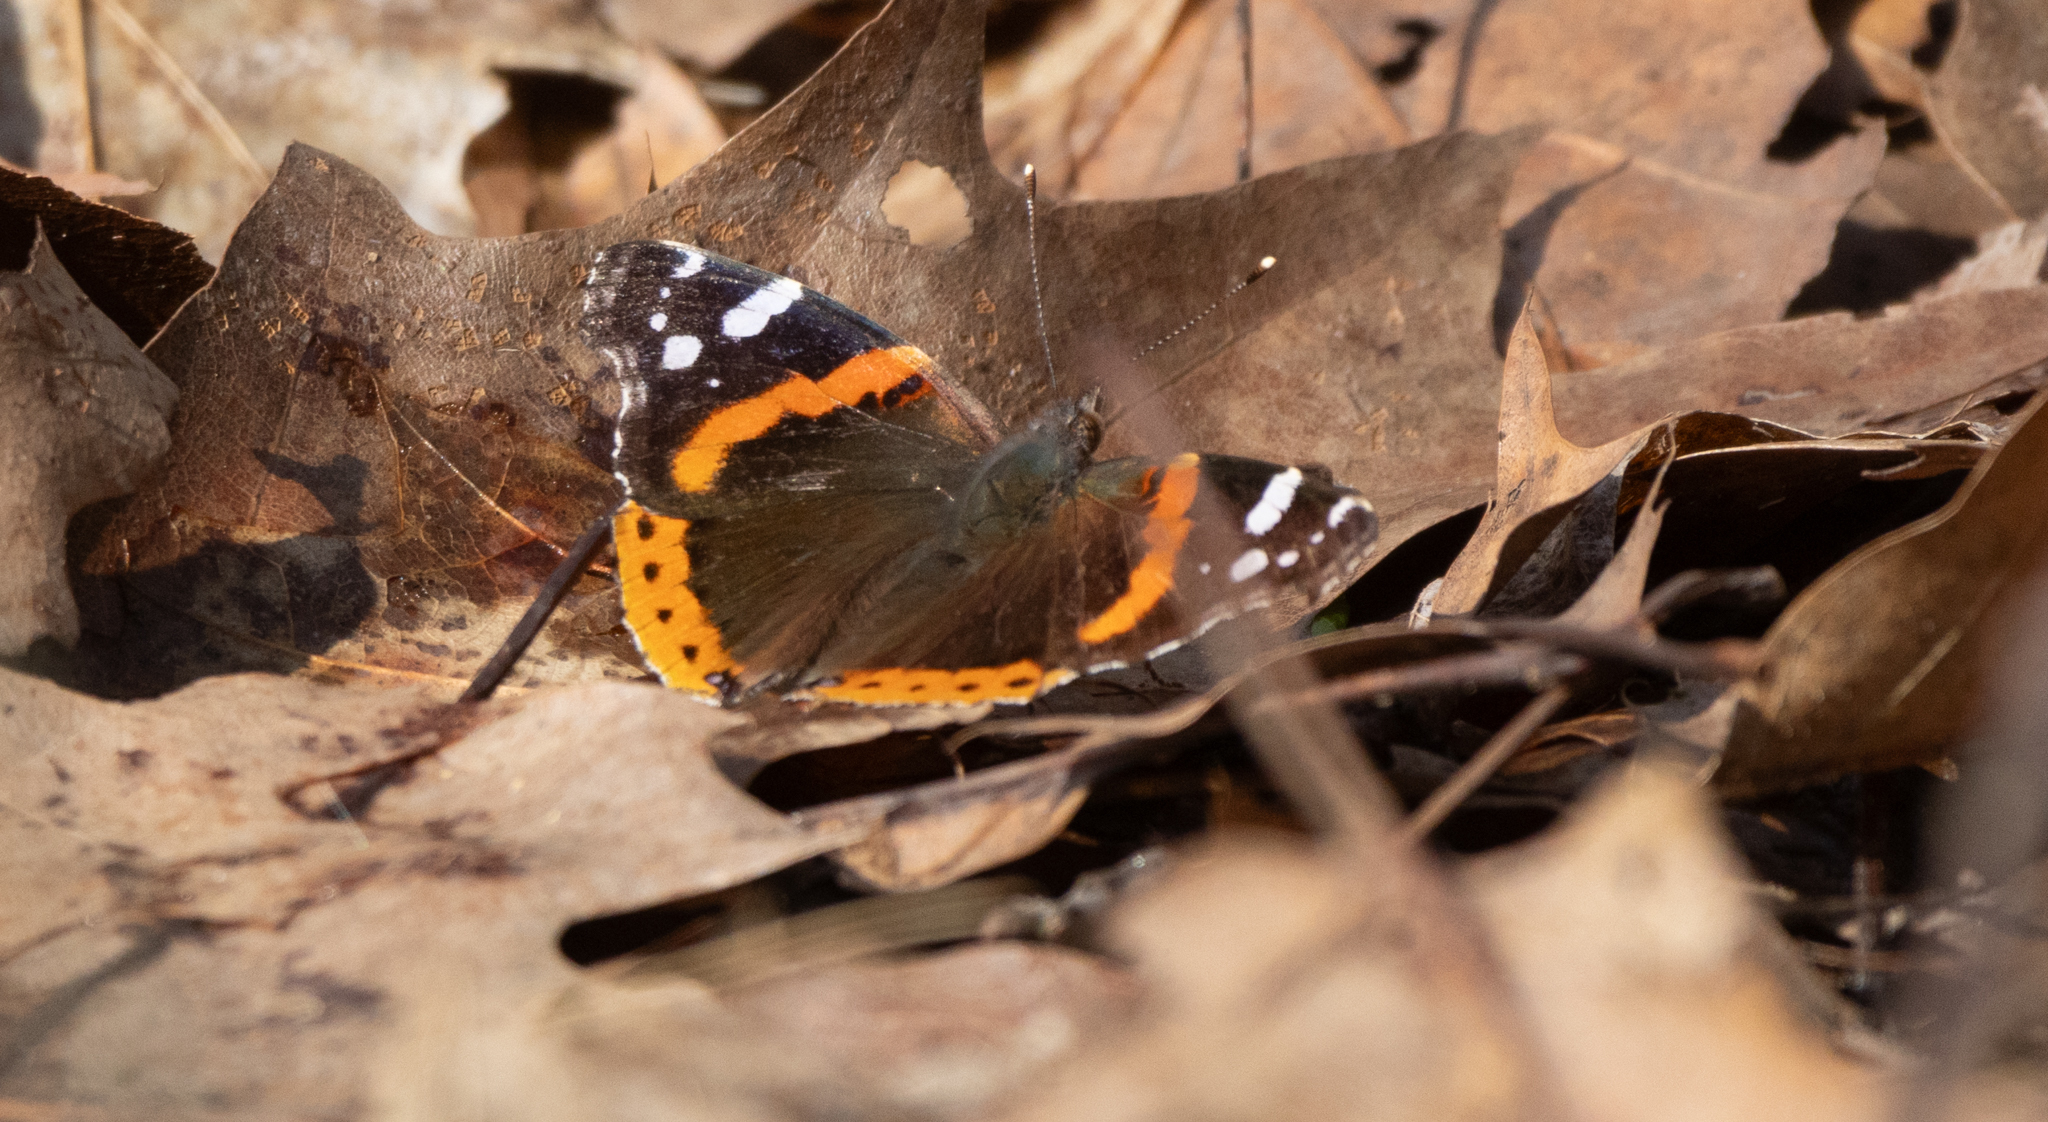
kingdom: Animalia
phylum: Arthropoda
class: Insecta
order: Lepidoptera
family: Nymphalidae
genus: Vanessa
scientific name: Vanessa atalanta
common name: Red admiral
